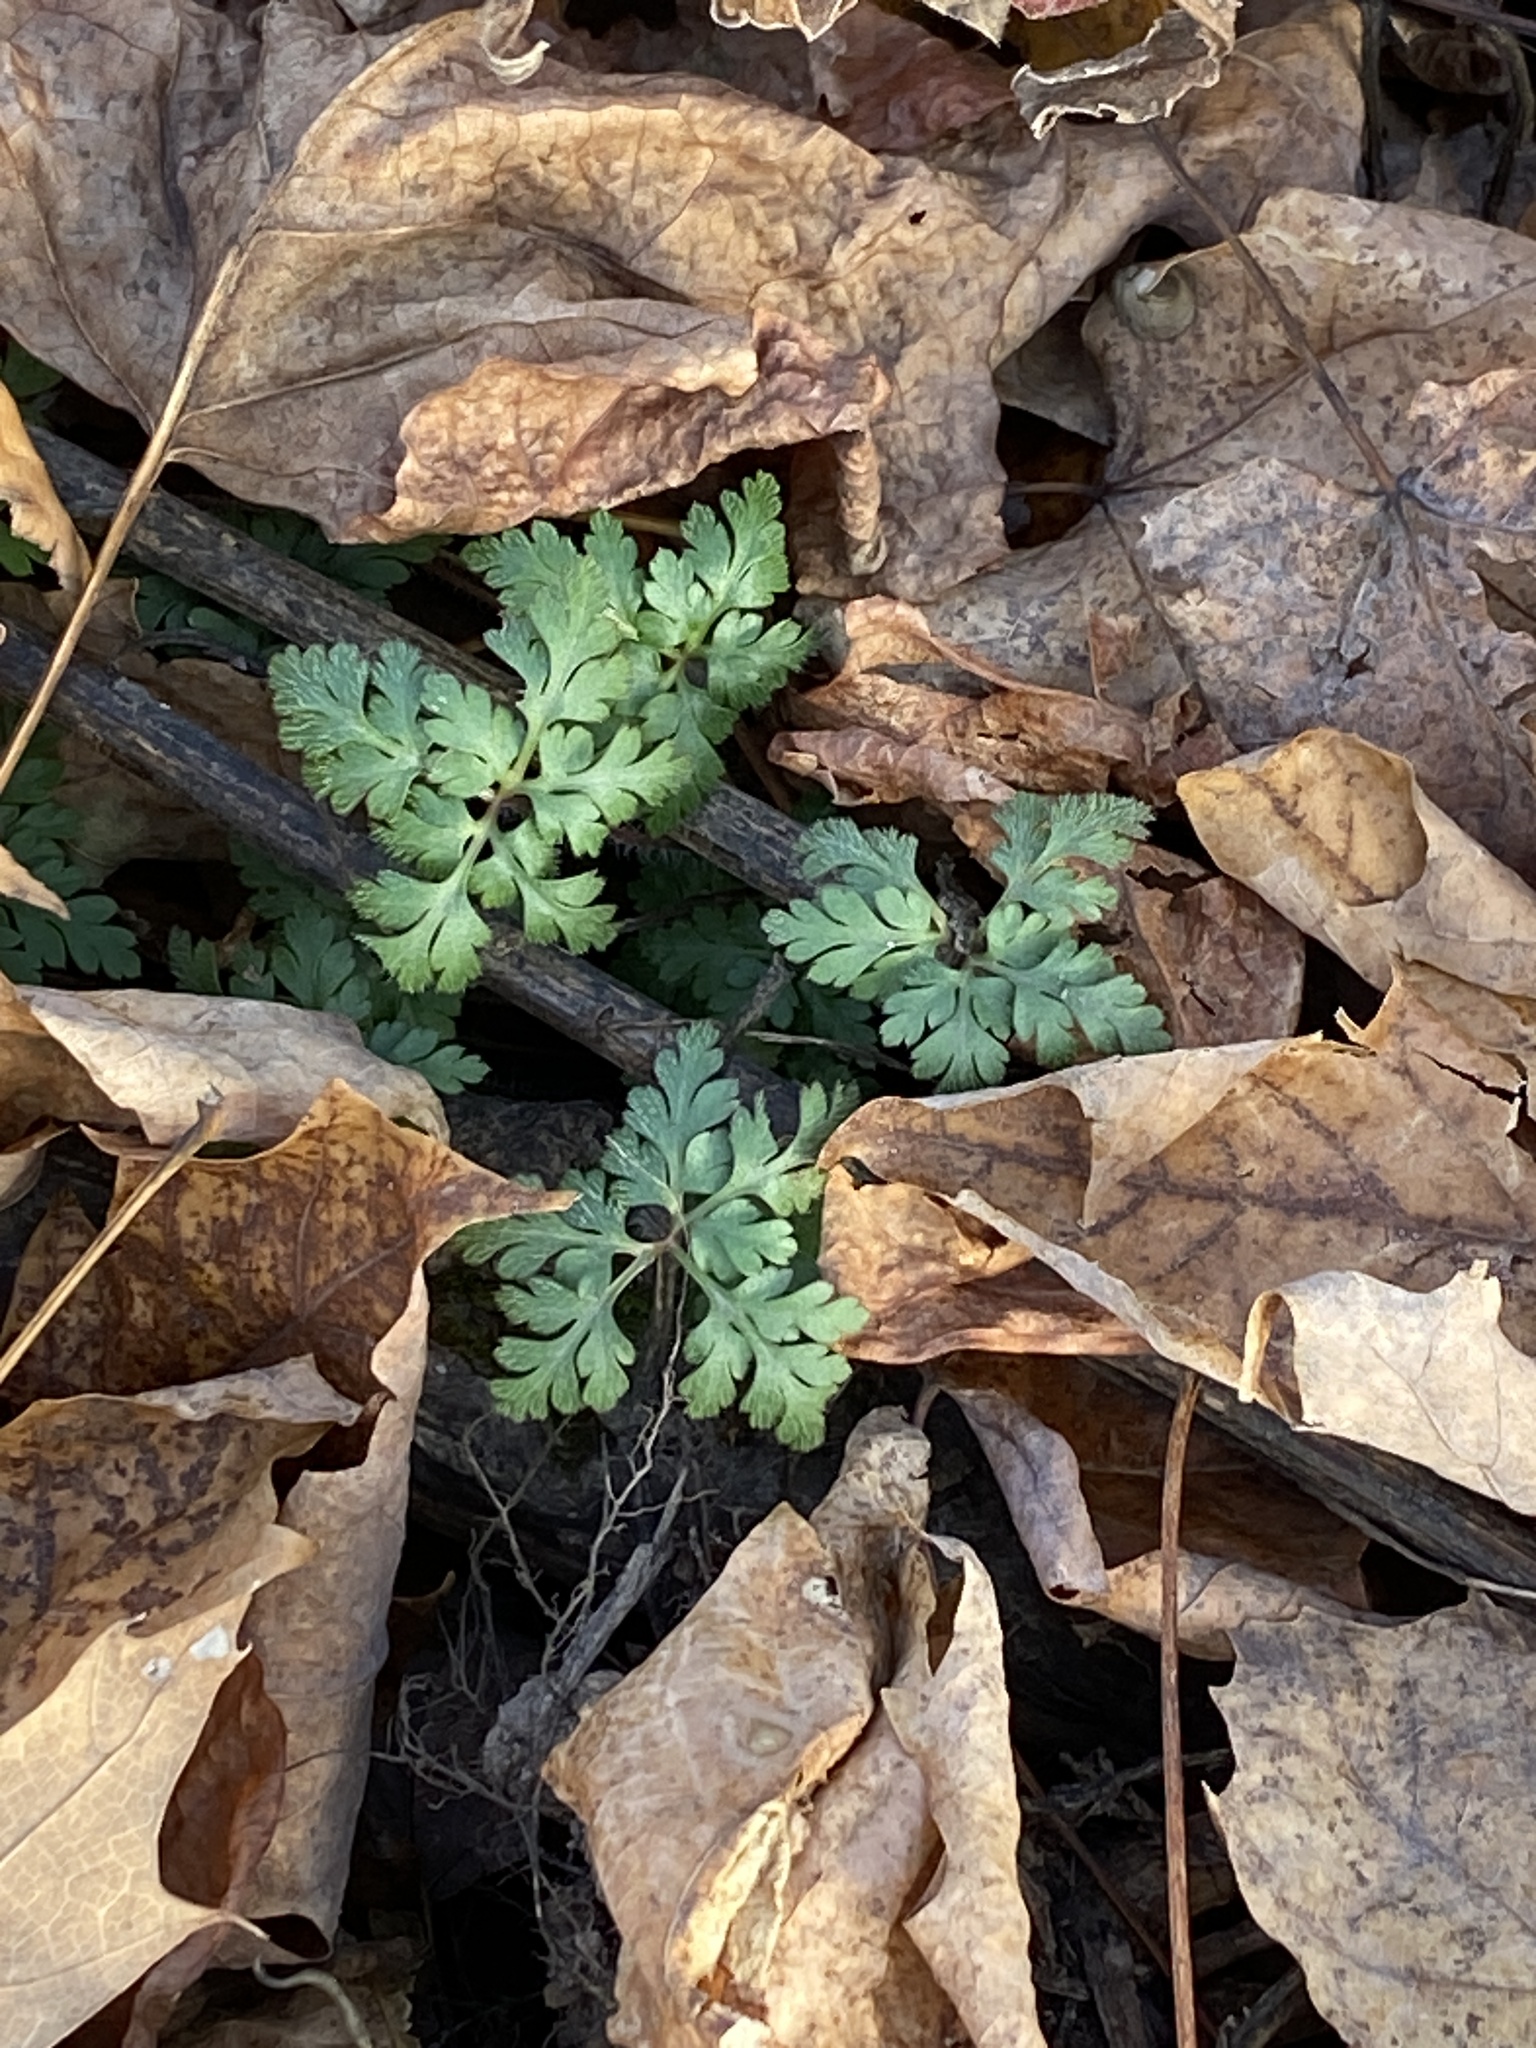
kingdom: Plantae
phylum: Tracheophyta
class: Magnoliopsida
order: Geraniales
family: Geraniaceae
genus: Geranium
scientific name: Geranium robertianum
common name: Herb-robert
